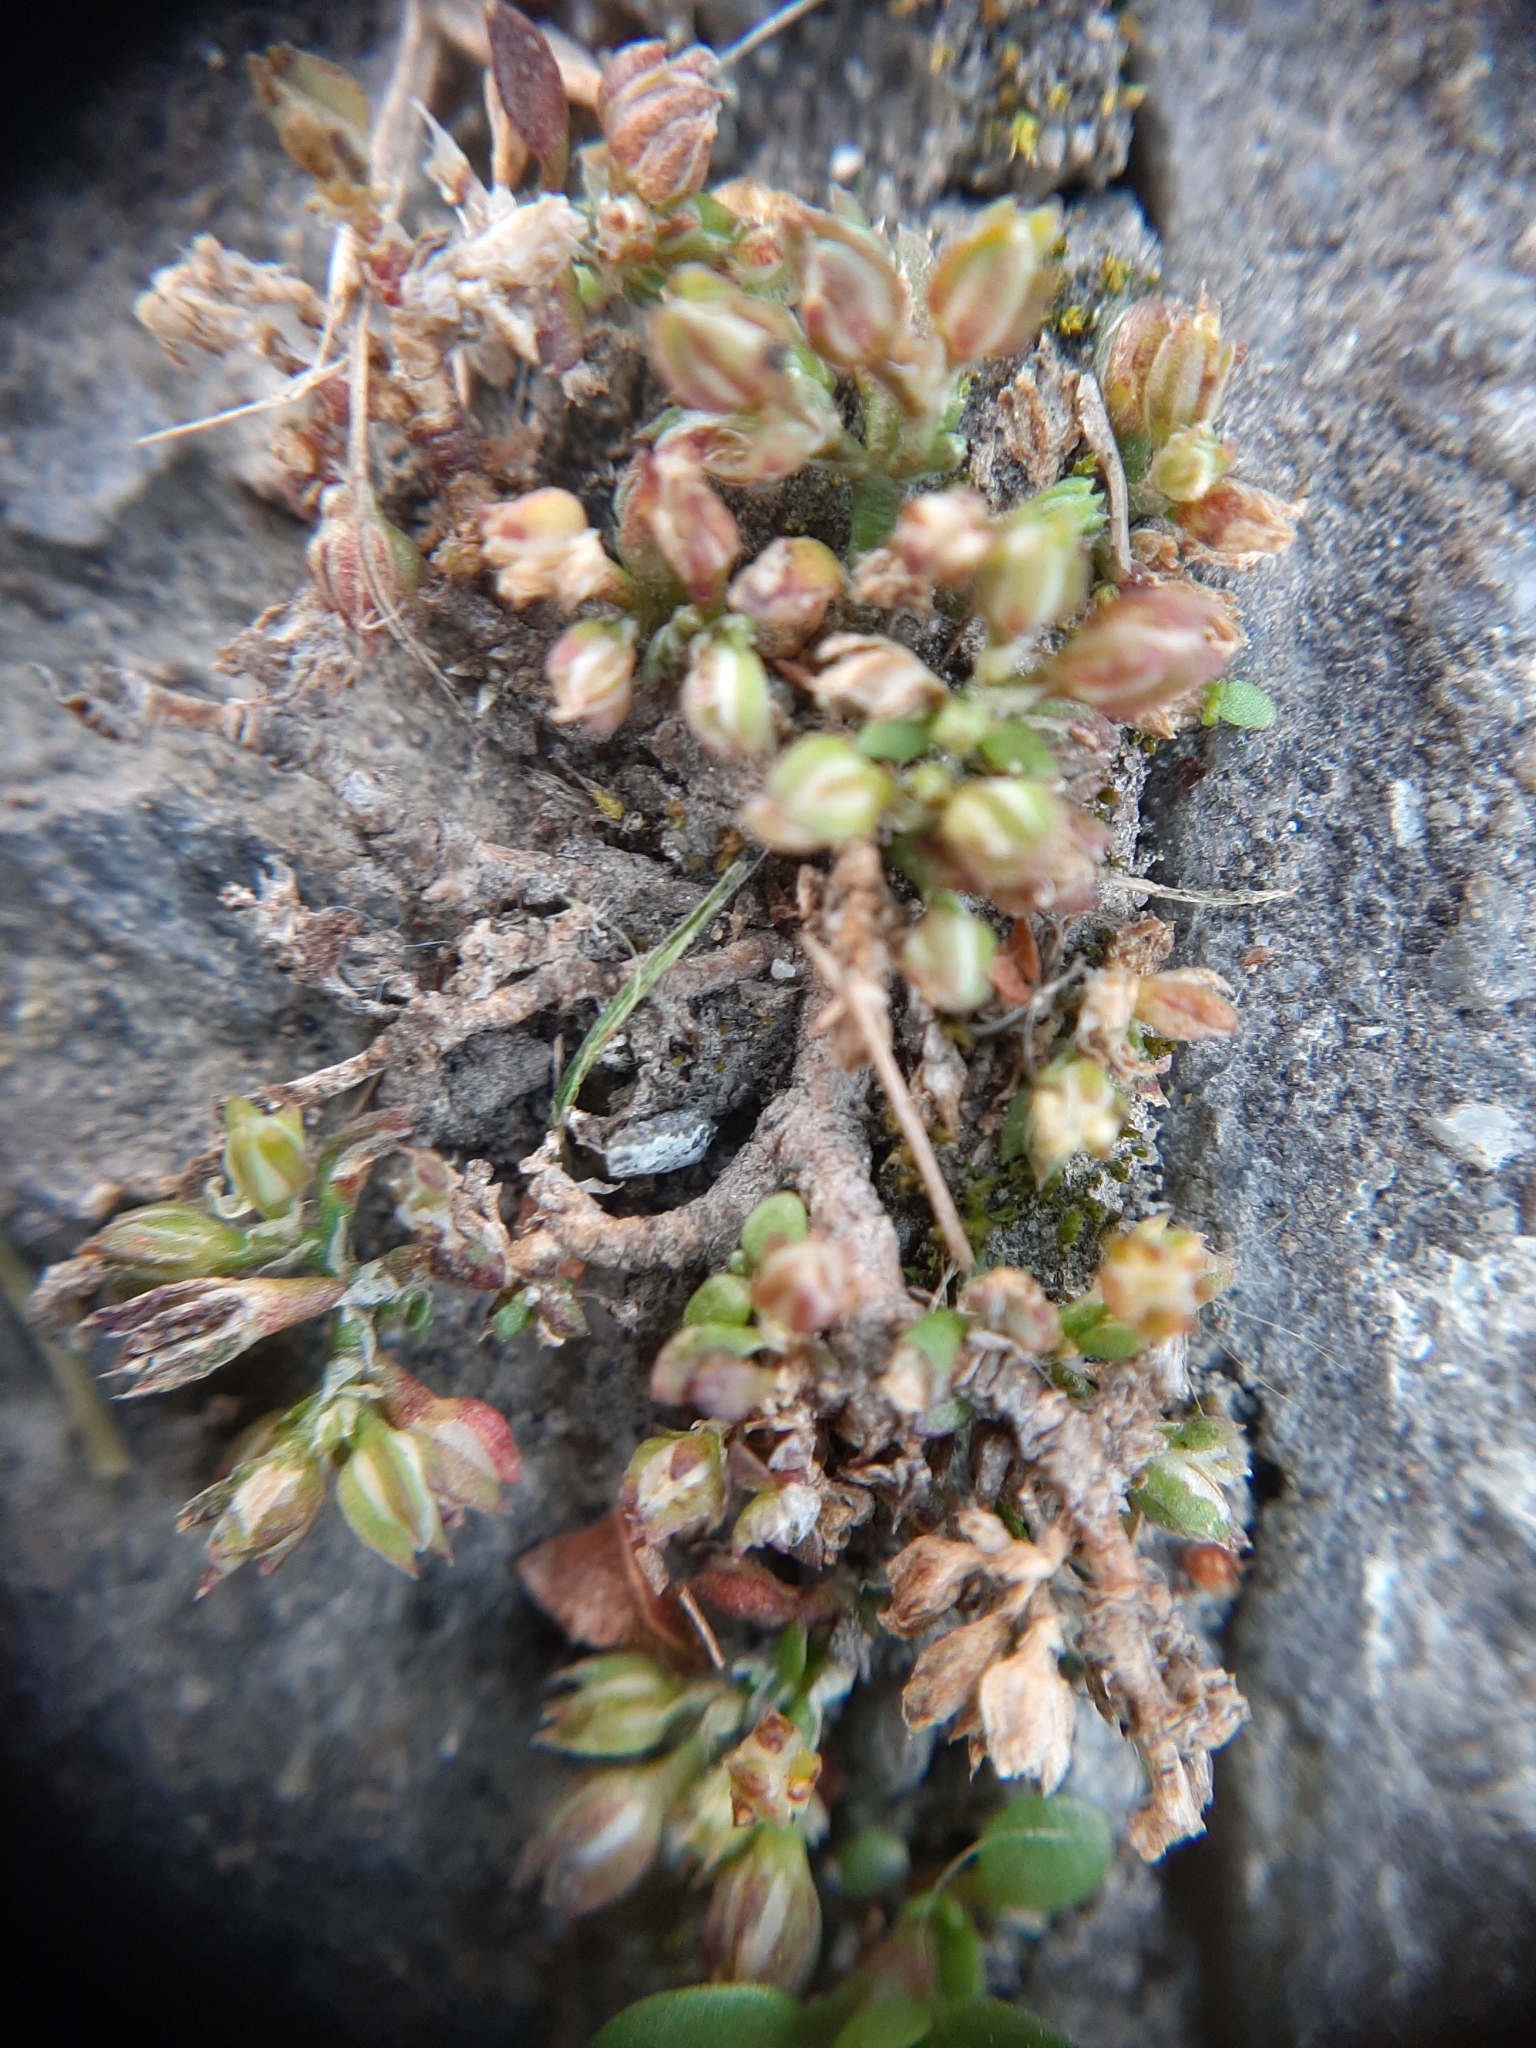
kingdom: Plantae
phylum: Tracheophyta
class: Magnoliopsida
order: Caryophyllales
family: Caryophyllaceae
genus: Polycarpon
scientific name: Polycarpon tetraphyllum
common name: Four-leaved all-seed
